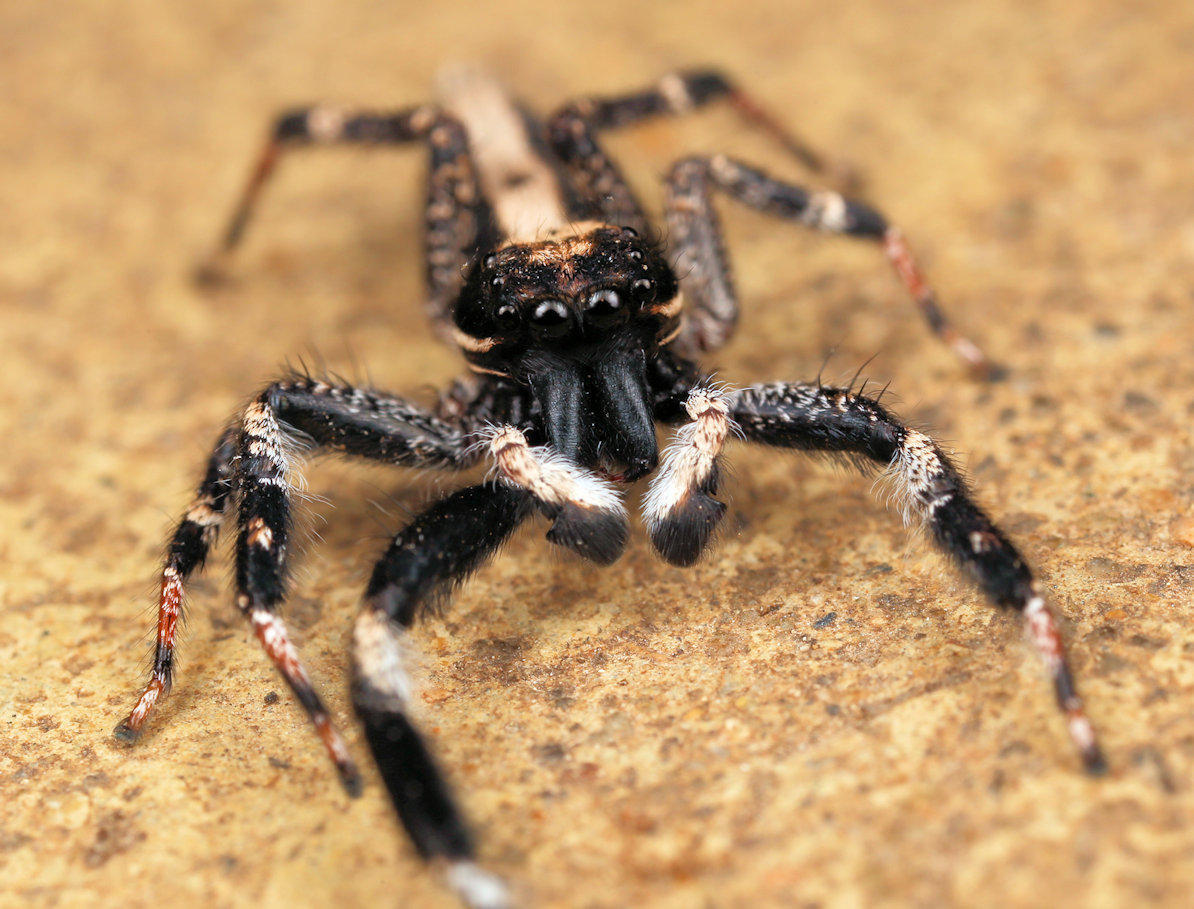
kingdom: Animalia
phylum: Arthropoda
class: Arachnida
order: Araneae
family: Salticidae
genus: Holcolaetis
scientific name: Holcolaetis zuluensis
